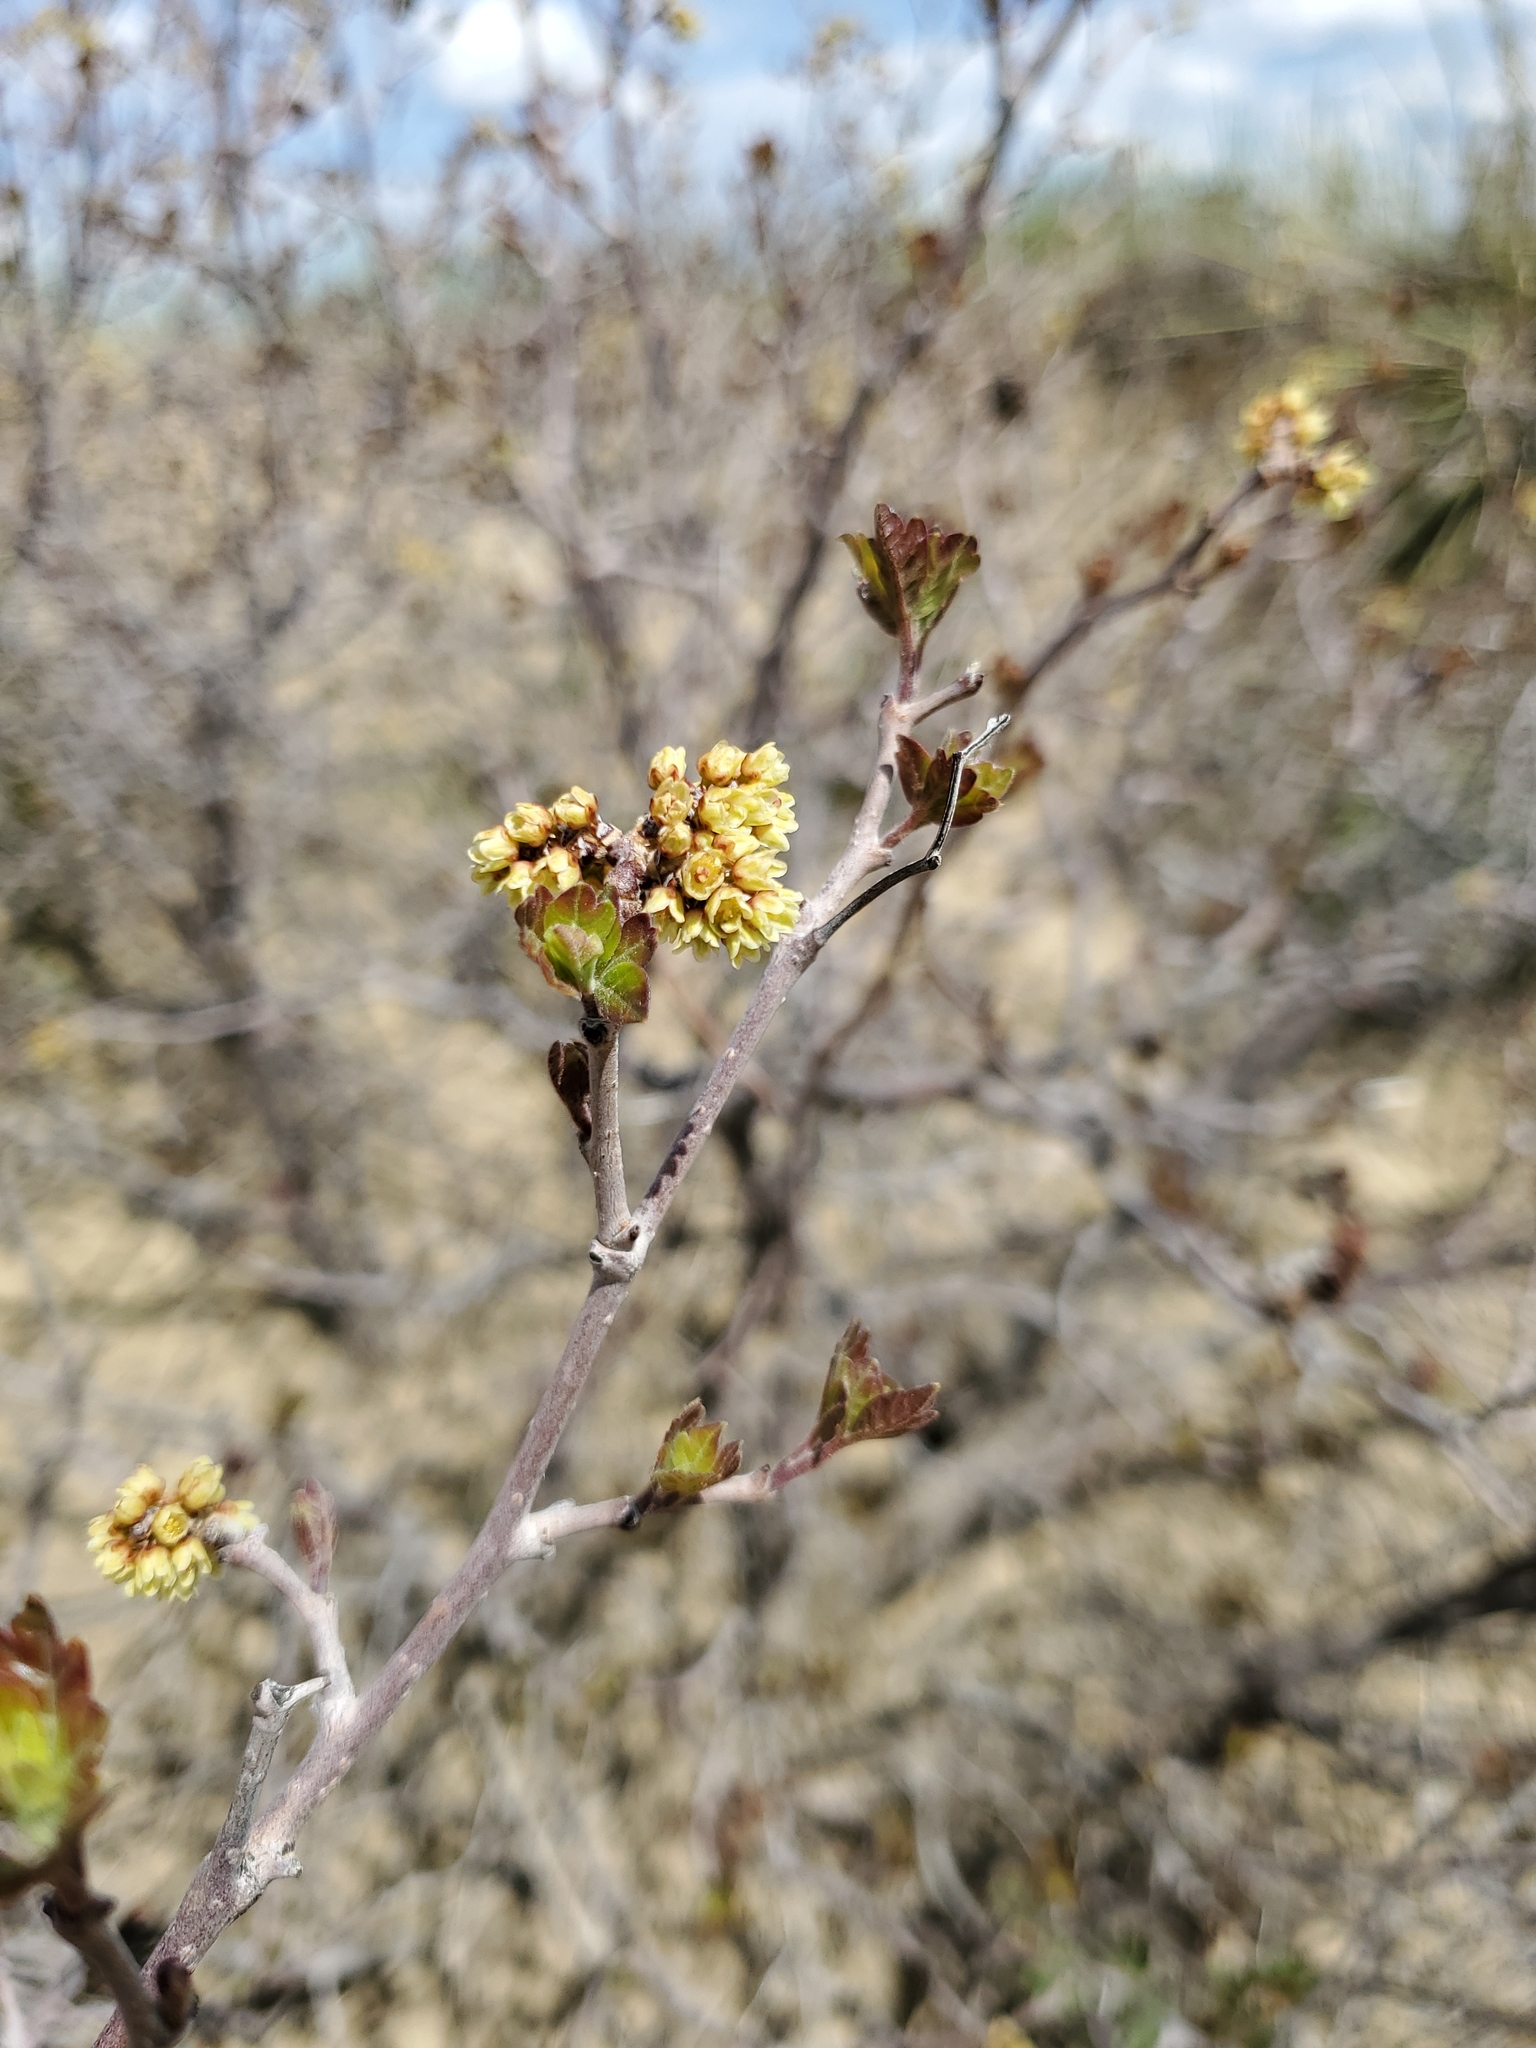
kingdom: Plantae
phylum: Tracheophyta
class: Magnoliopsida
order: Sapindales
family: Anacardiaceae
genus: Rhus
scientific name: Rhus aromatica
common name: Aromatic sumac
